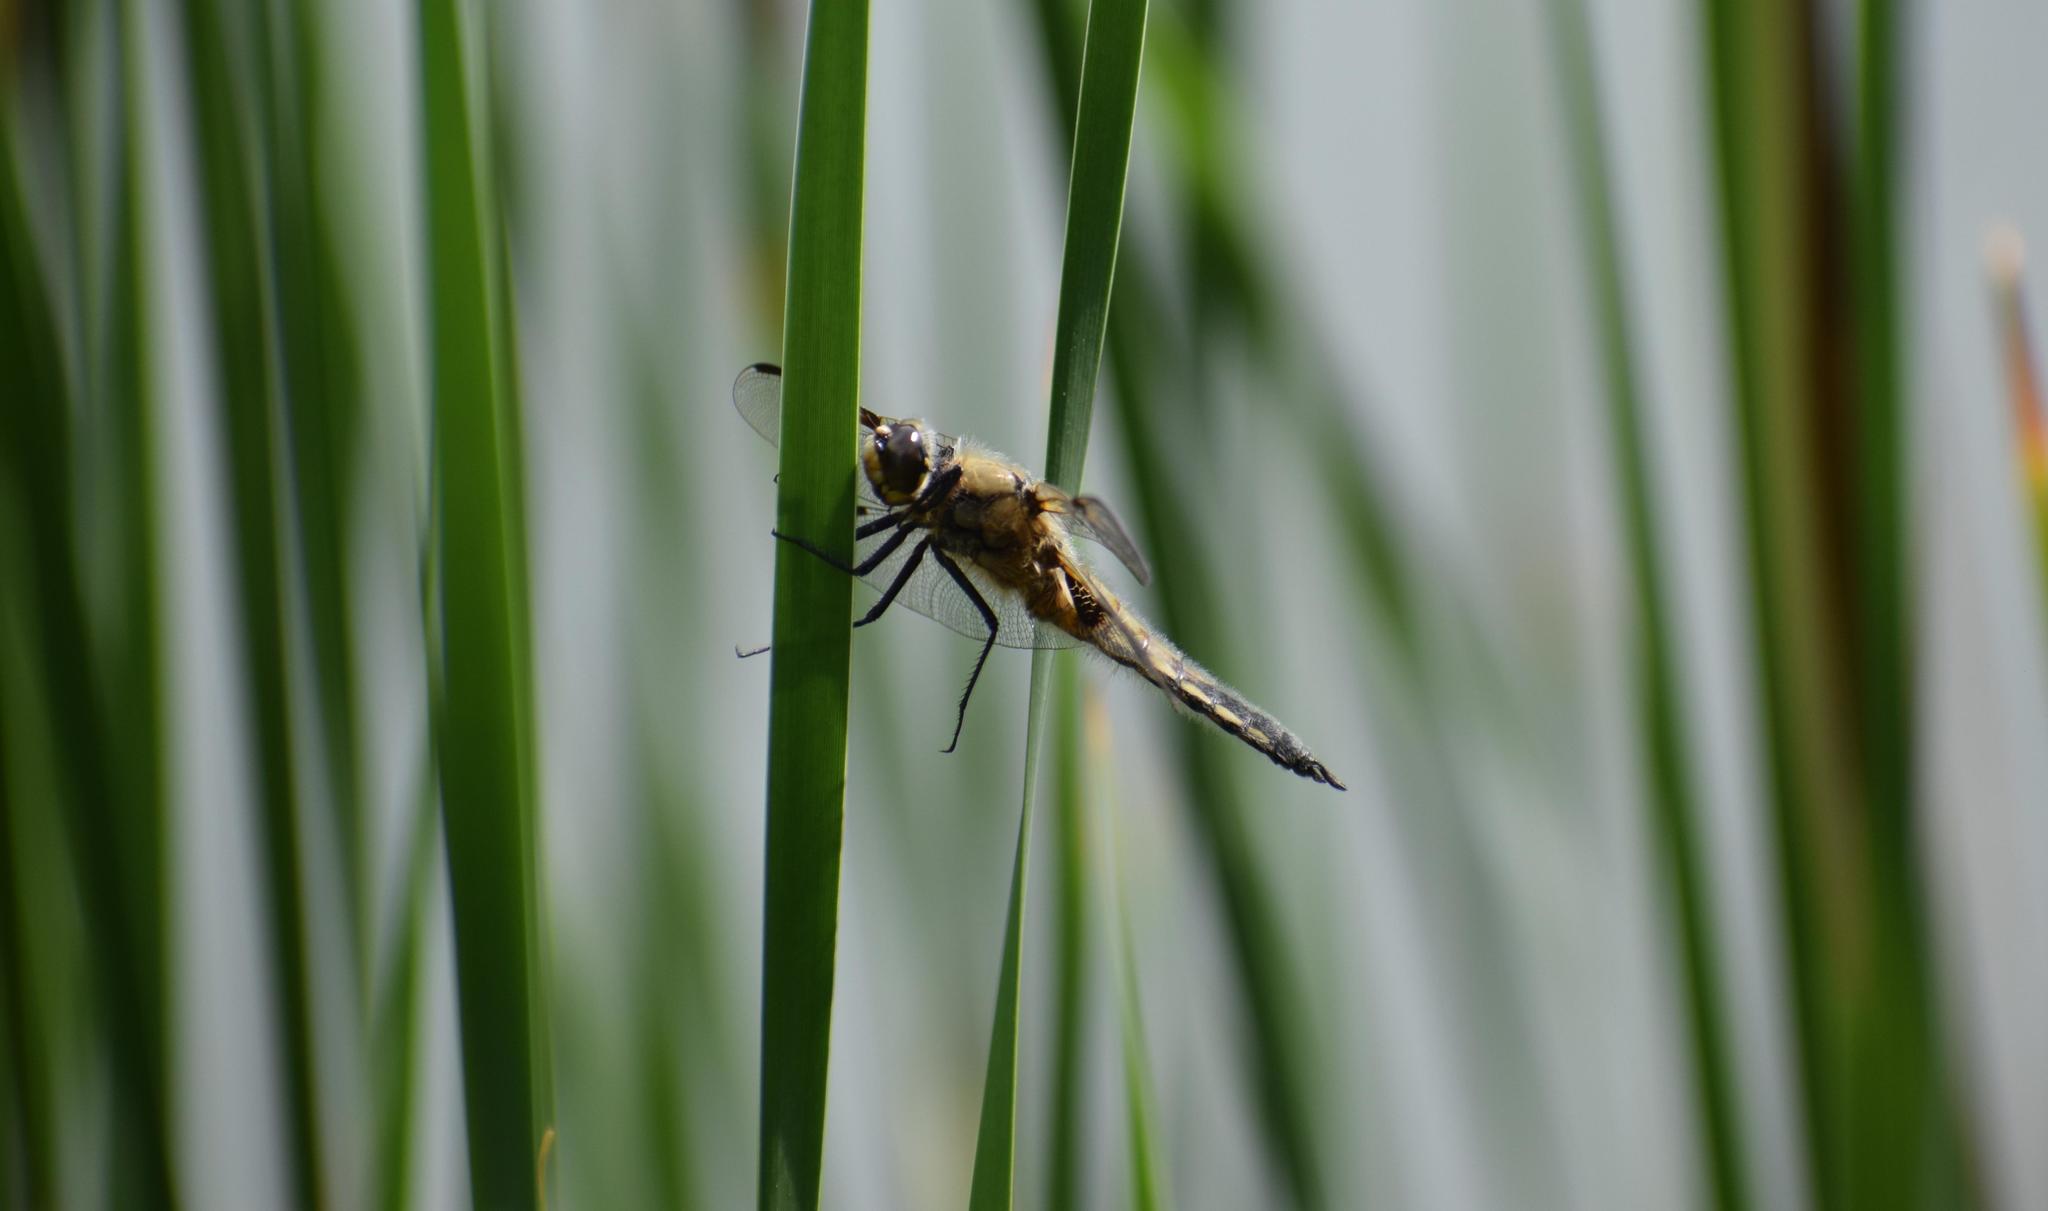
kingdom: Animalia
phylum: Arthropoda
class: Insecta
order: Odonata
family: Libellulidae
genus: Libellula
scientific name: Libellula quadrimaculata
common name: Four-spotted chaser
